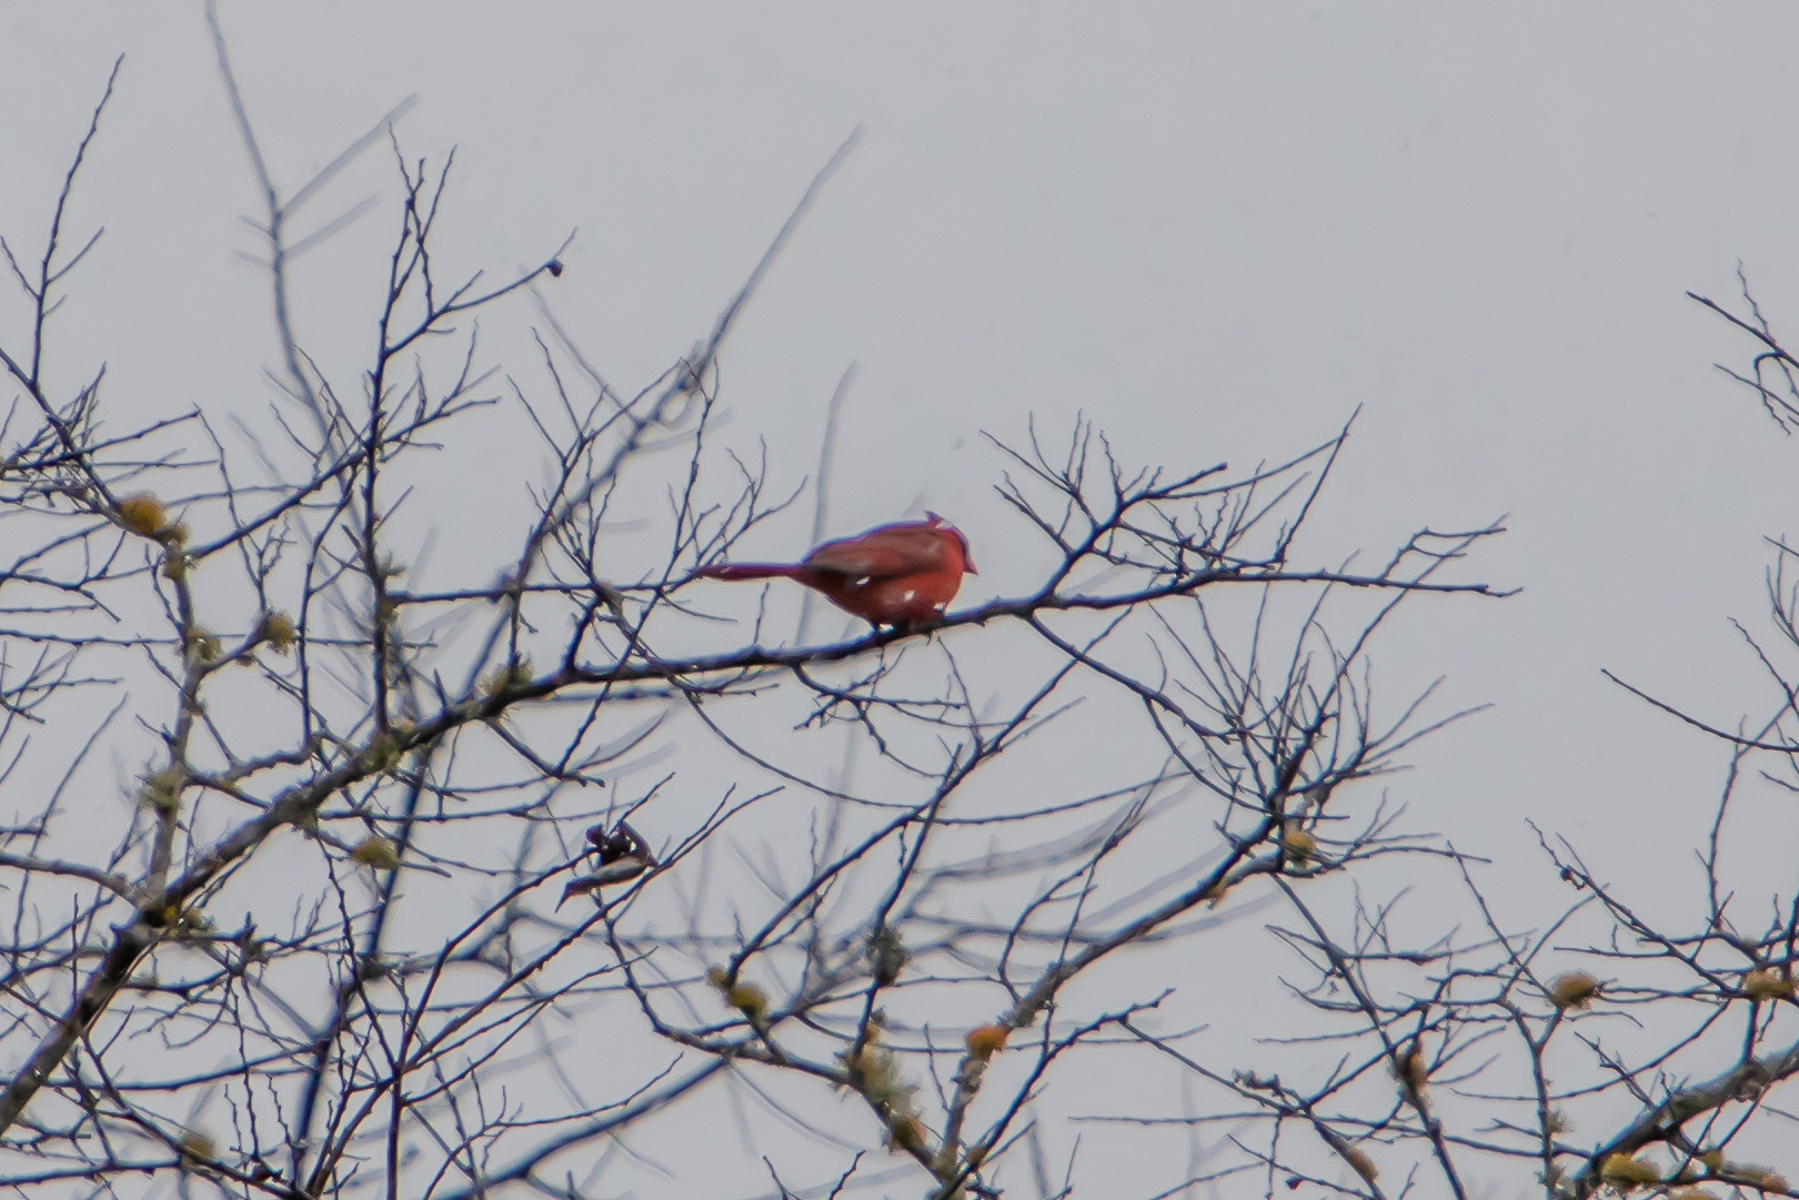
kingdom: Animalia
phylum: Chordata
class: Aves
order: Passeriformes
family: Cardinalidae
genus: Cardinalis
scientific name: Cardinalis cardinalis
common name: Northern cardinal
